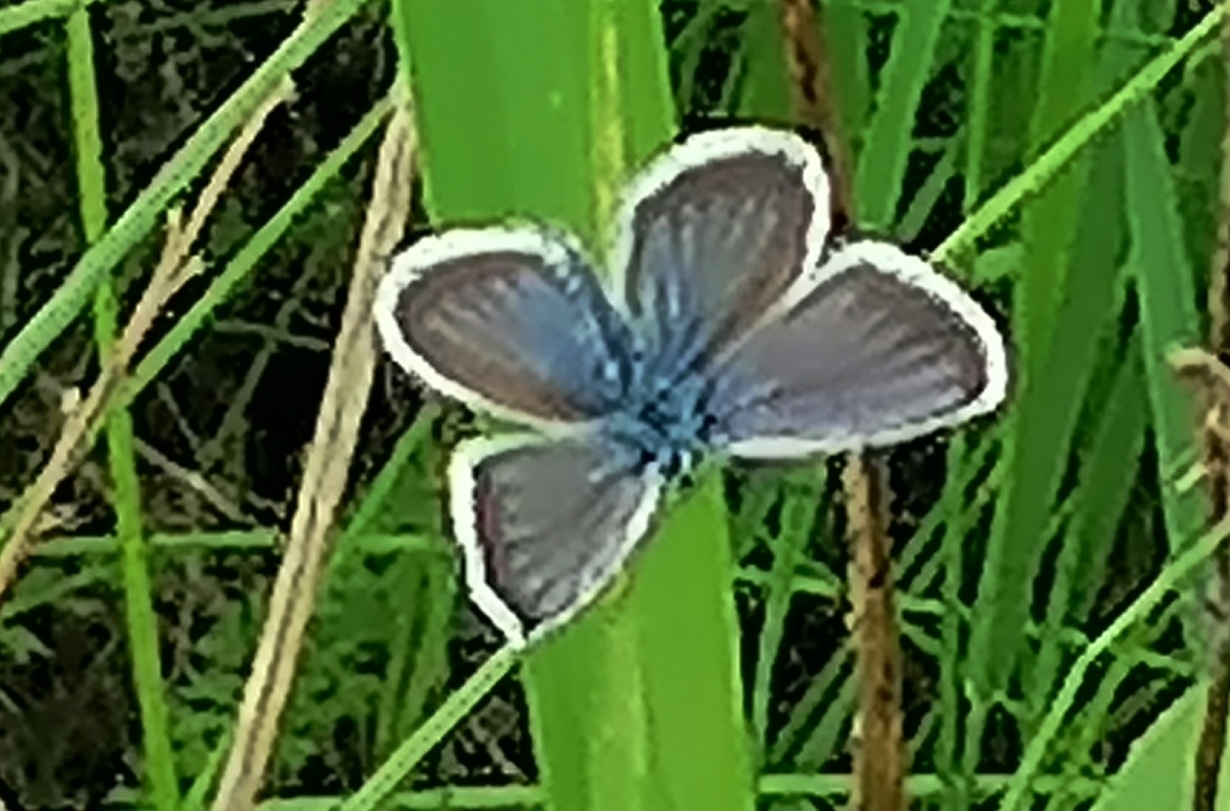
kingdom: Animalia
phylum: Arthropoda
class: Insecta
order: Lepidoptera
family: Lycaenidae
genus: Plebejus
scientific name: Plebejus argus
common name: Silver-studded blue
